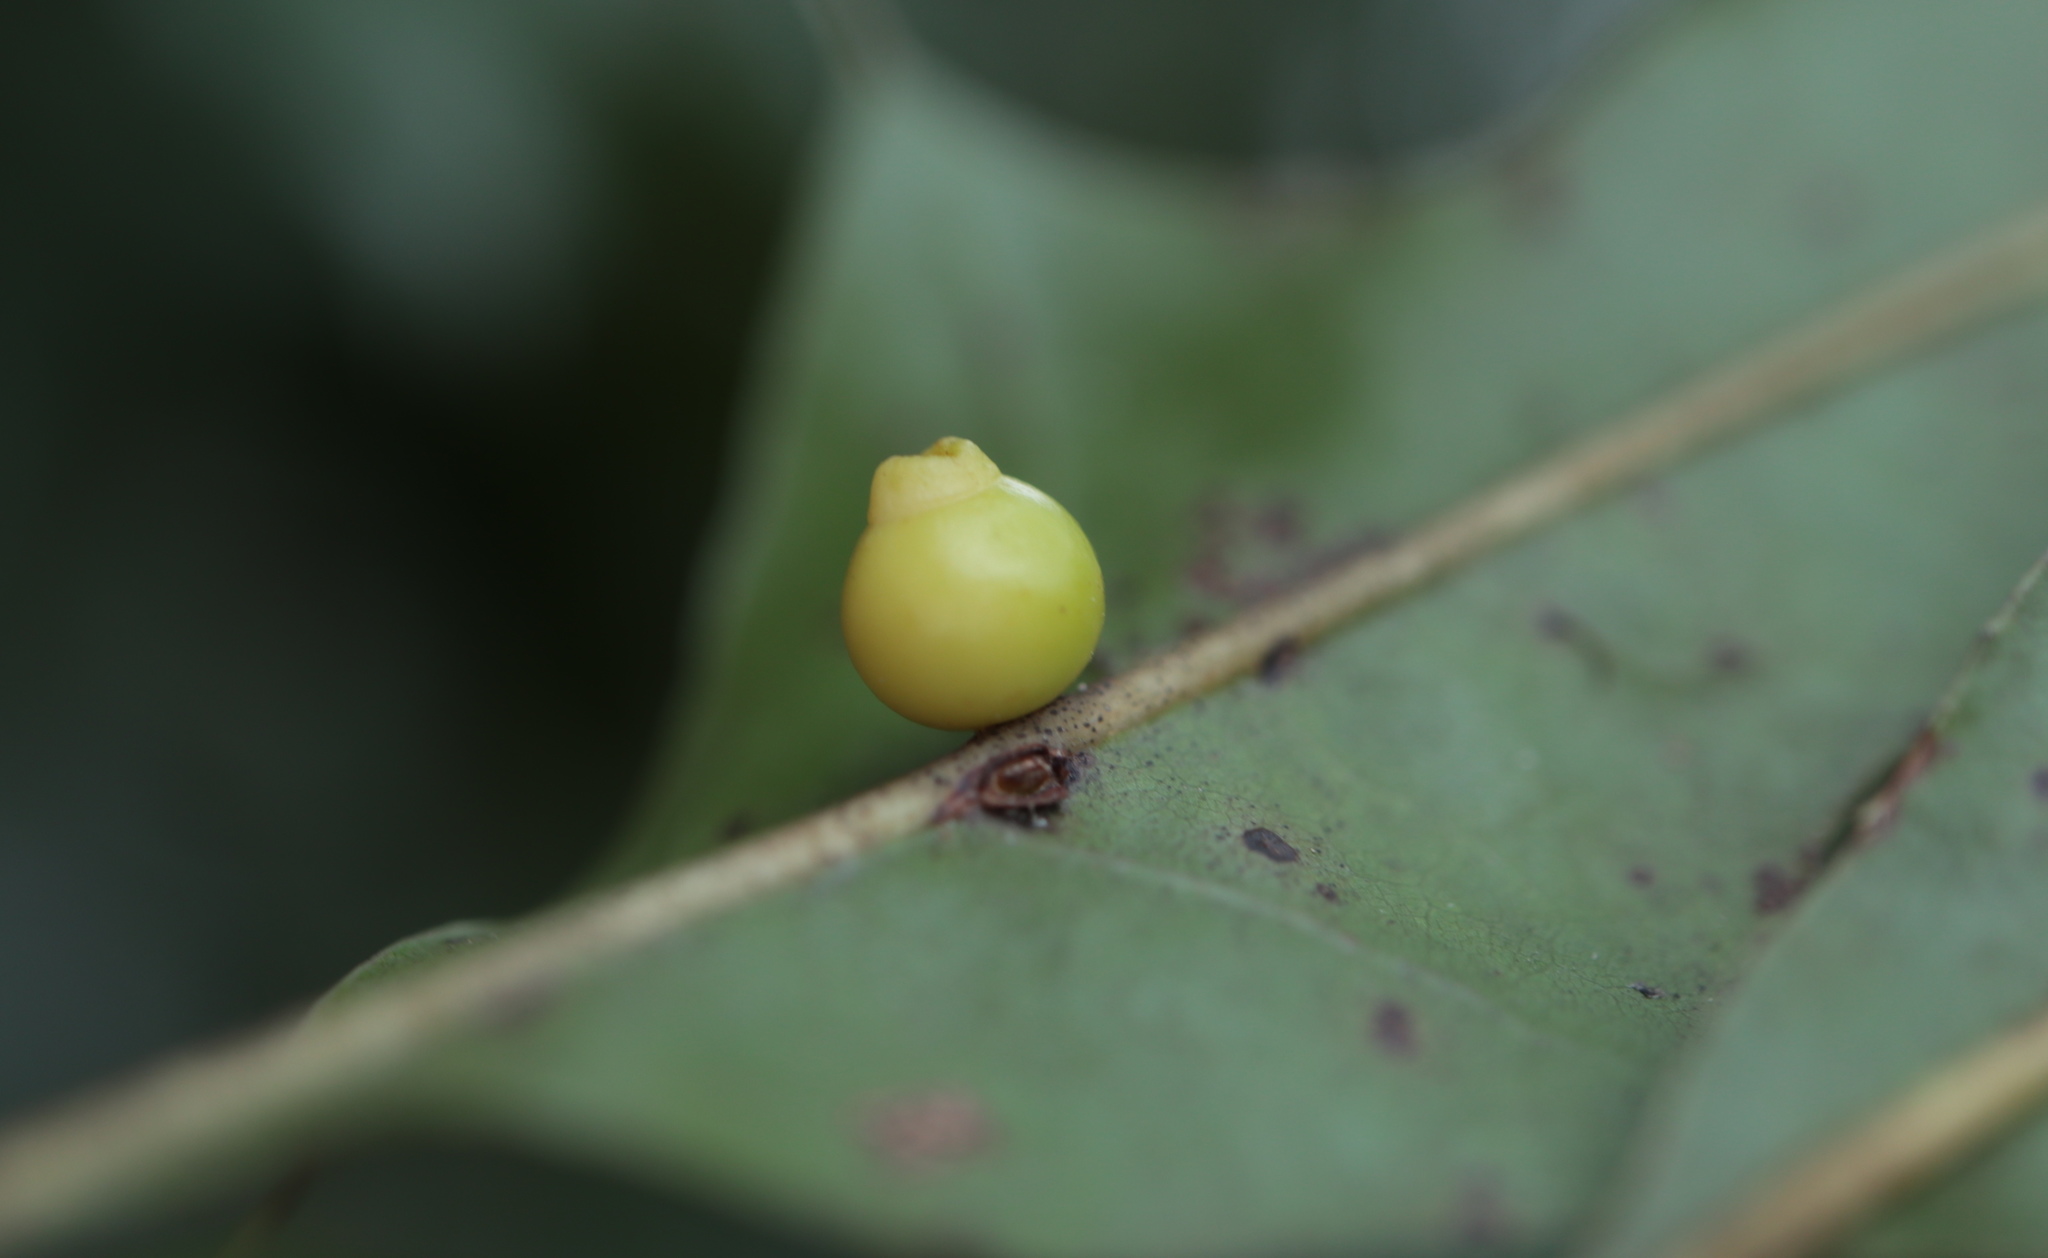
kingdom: Animalia
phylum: Arthropoda
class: Insecta
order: Hymenoptera
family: Cynipidae
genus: Kokkocynips
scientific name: Kokkocynips rileyi
